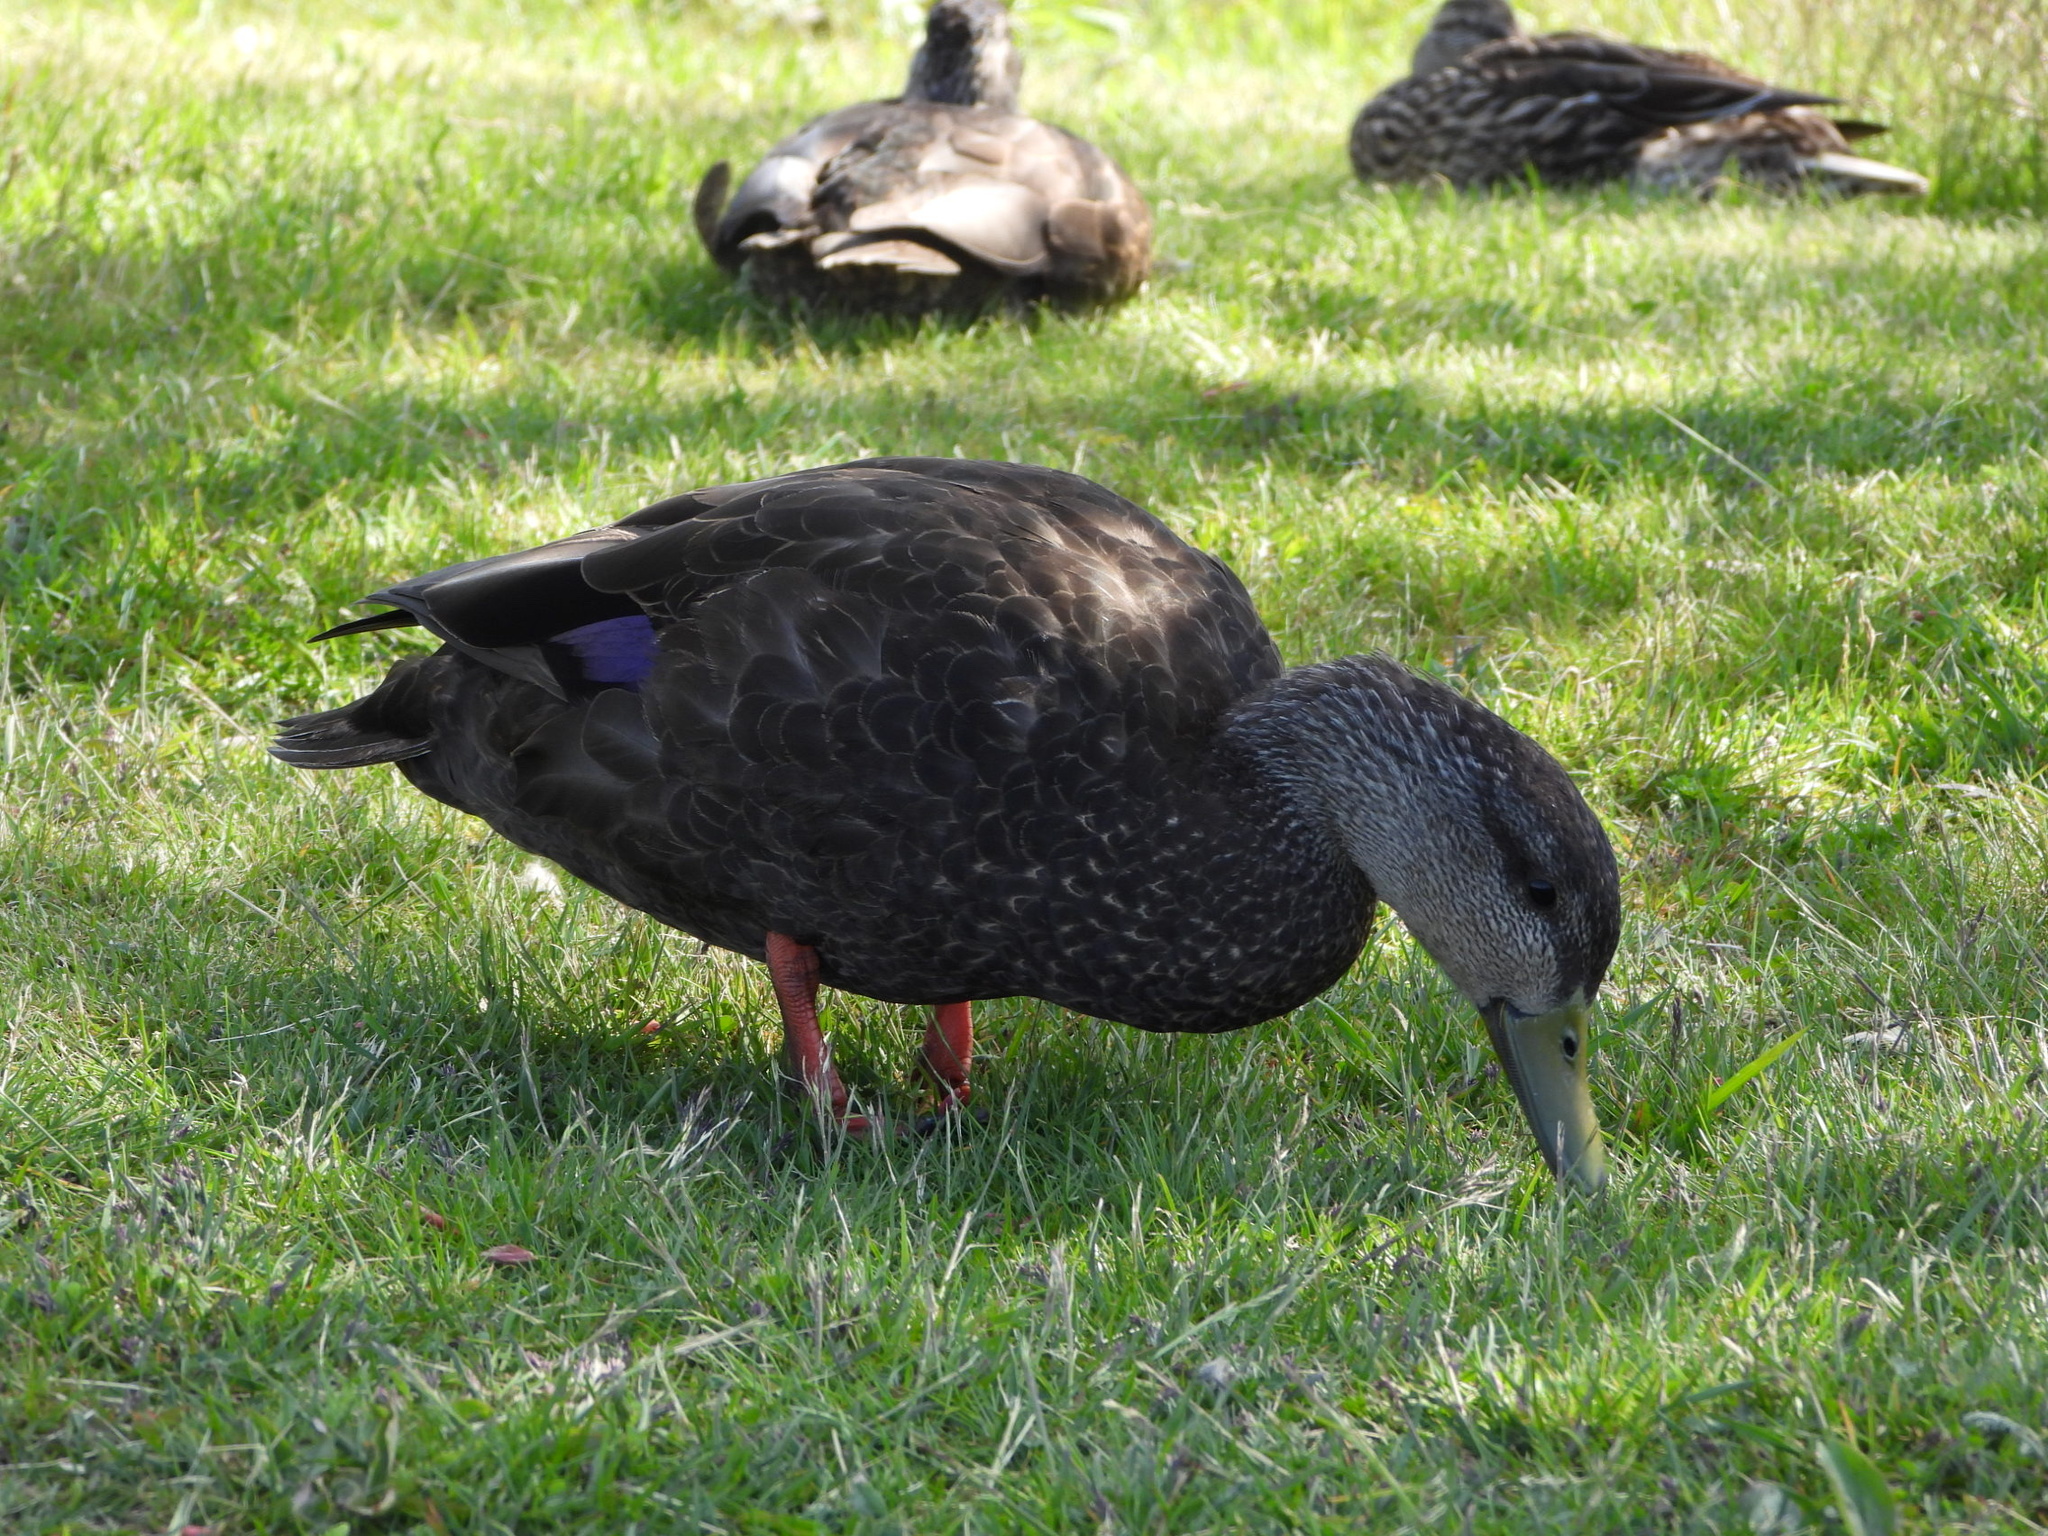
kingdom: Animalia
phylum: Chordata
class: Aves
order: Anseriformes
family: Anatidae
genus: Anas
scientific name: Anas rubripes
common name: American black duck
